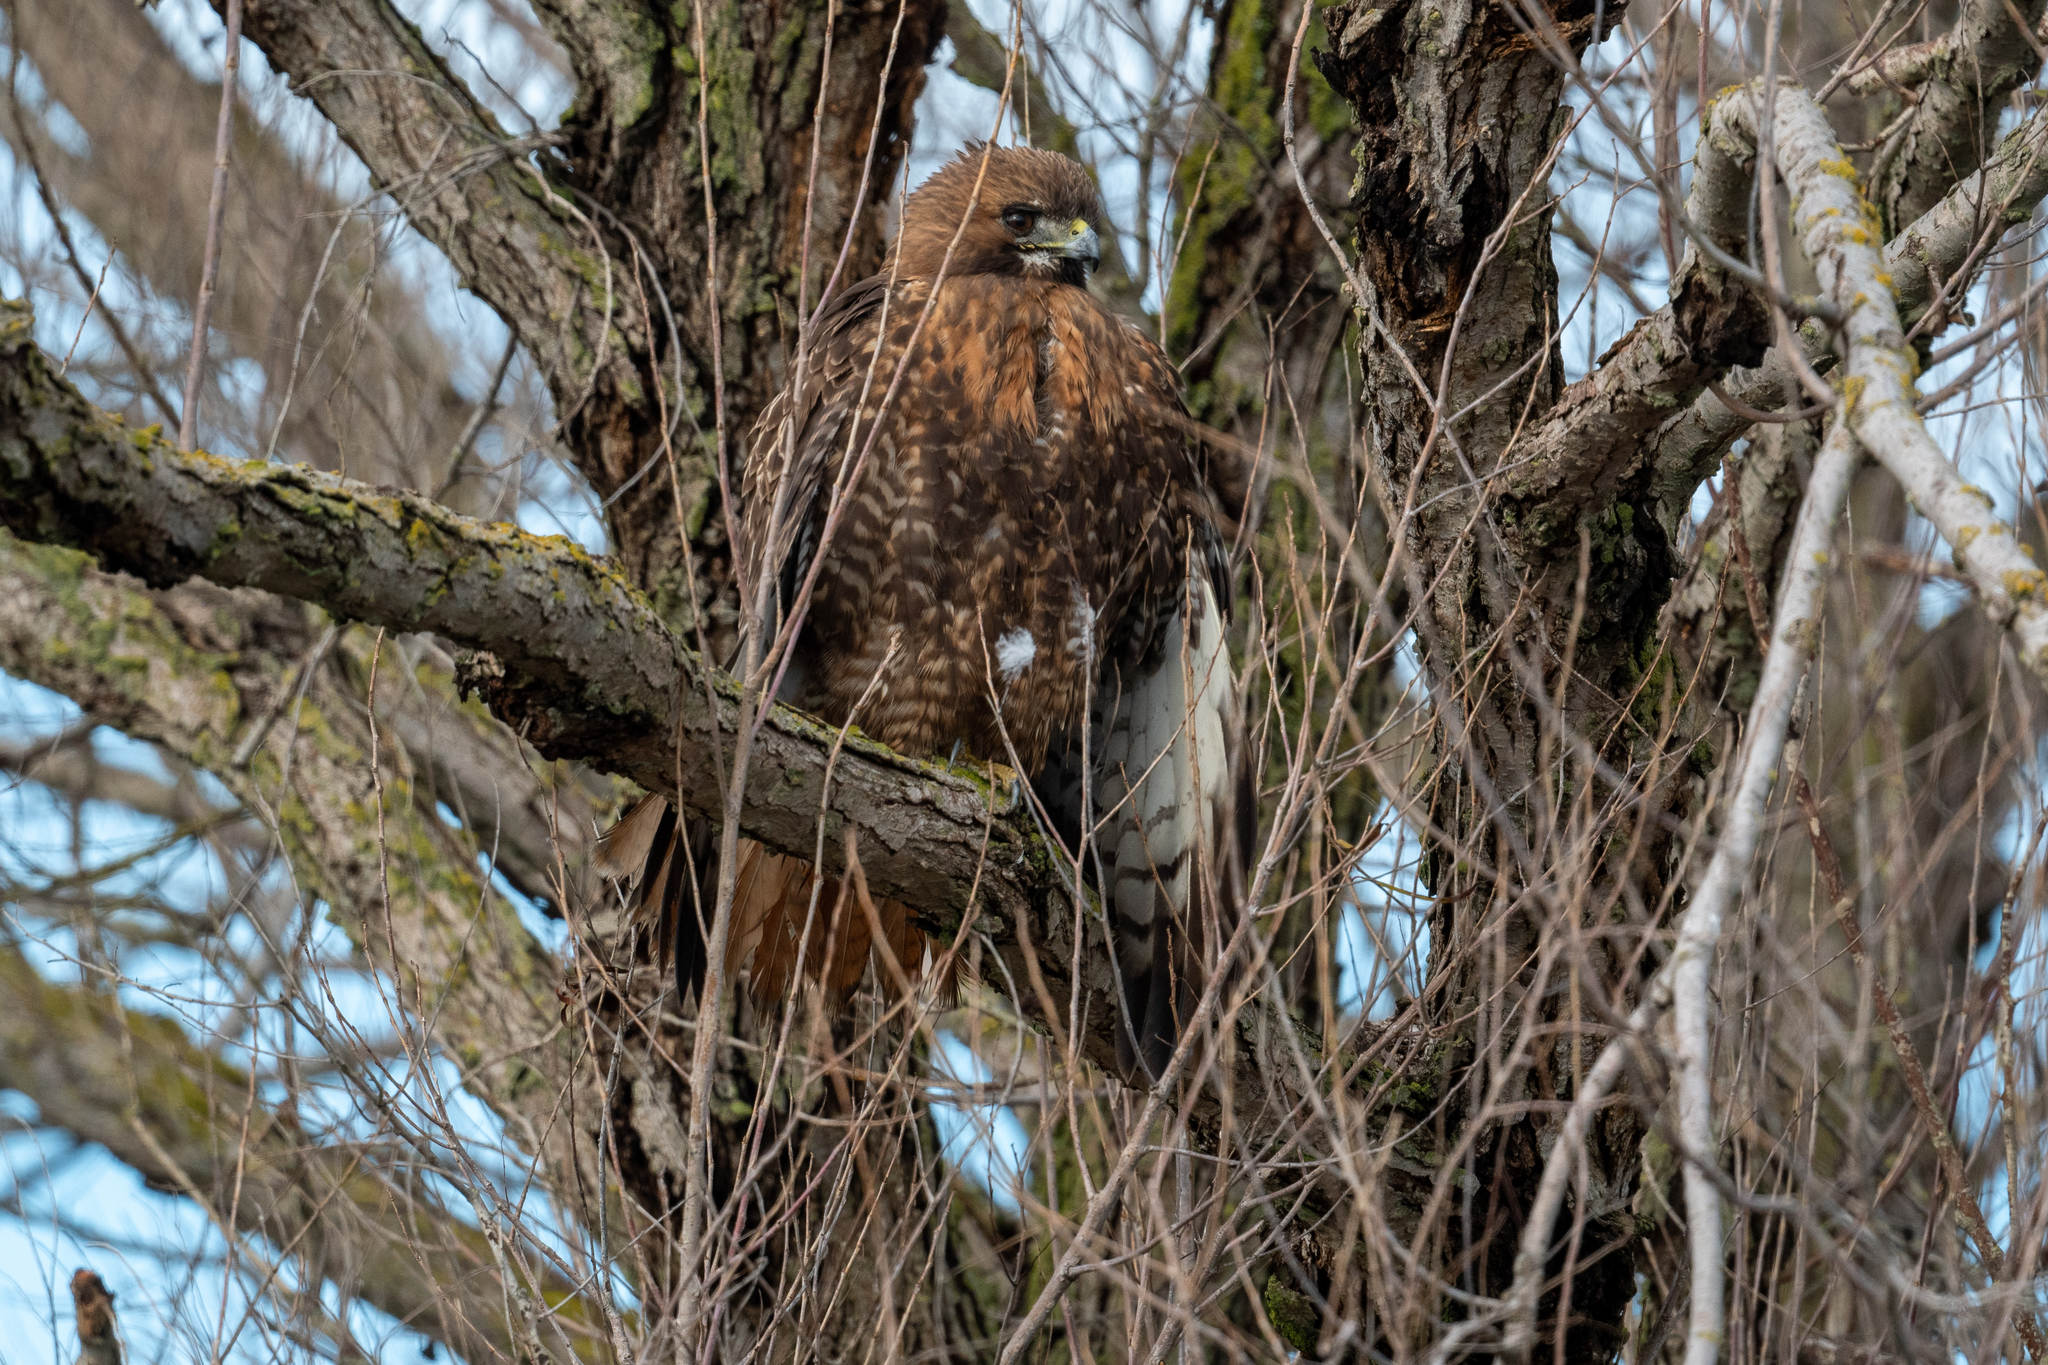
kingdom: Animalia
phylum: Chordata
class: Aves
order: Accipitriformes
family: Accipitridae
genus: Buteo
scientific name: Buteo jamaicensis
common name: Red-tailed hawk
